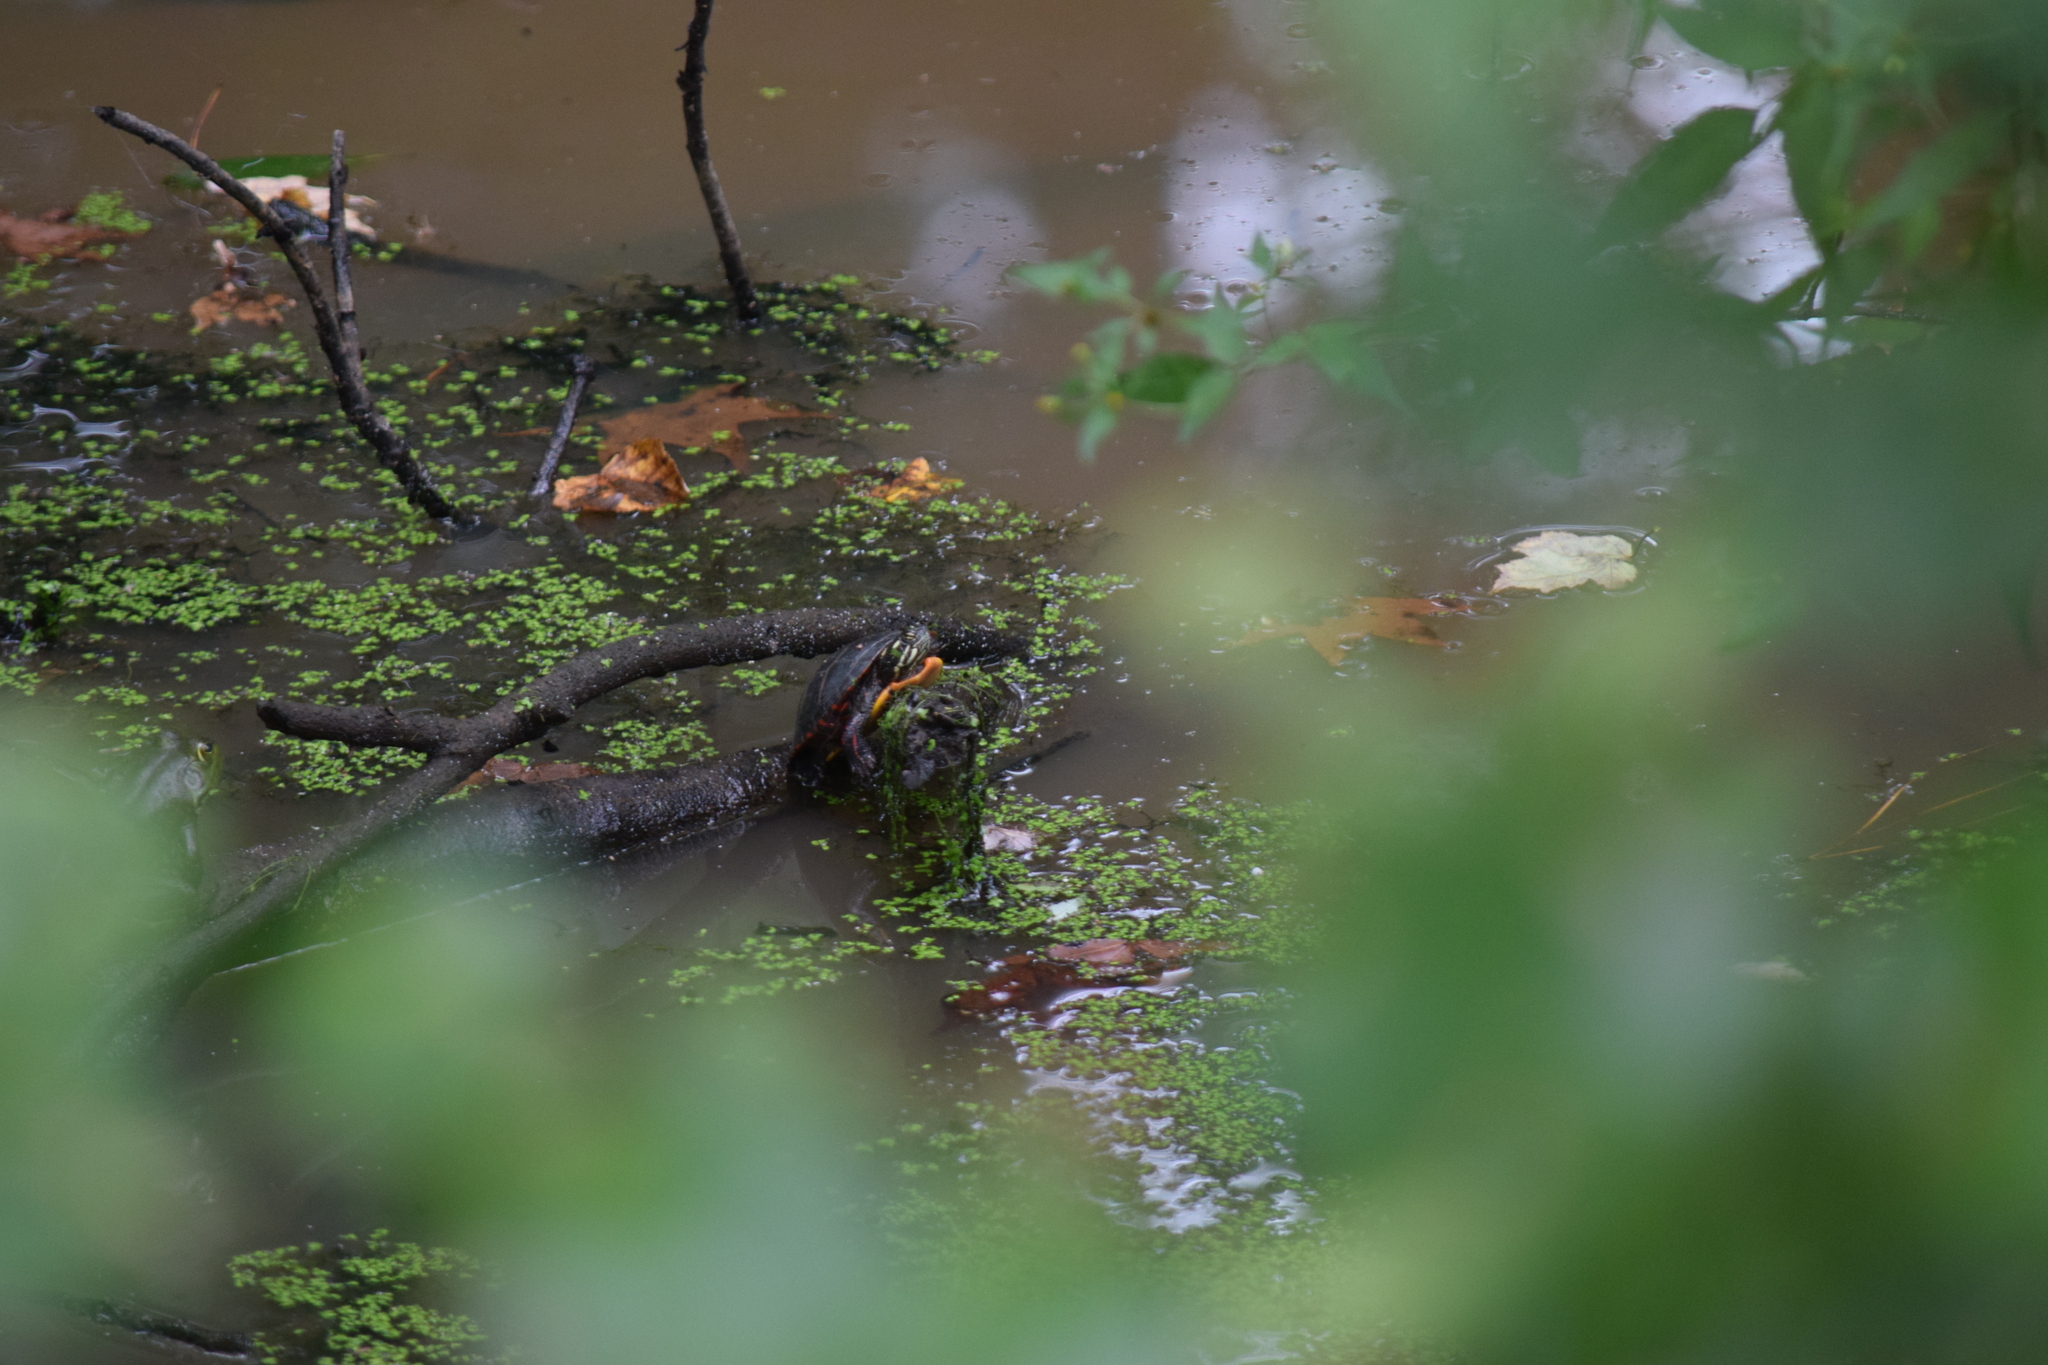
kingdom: Animalia
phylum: Chordata
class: Testudines
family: Emydidae
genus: Chrysemys
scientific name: Chrysemys picta
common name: Painted turtle
